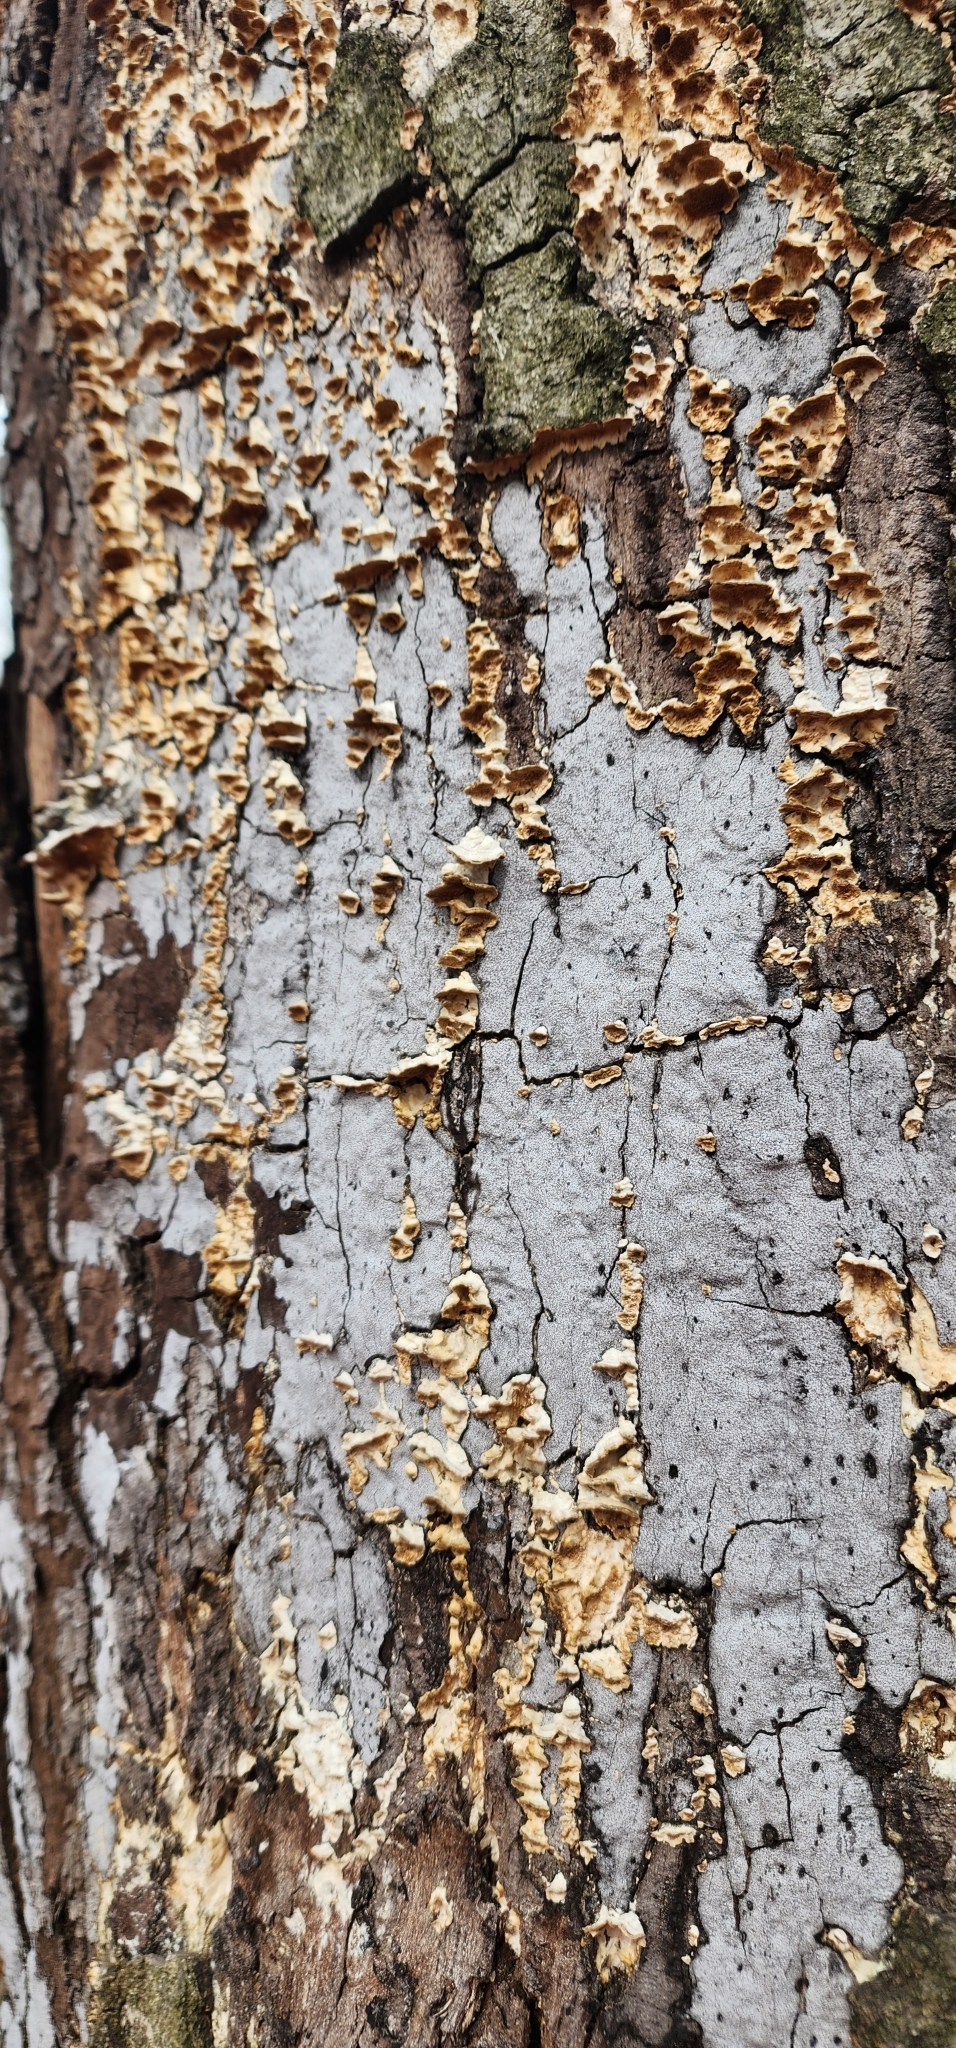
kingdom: Fungi
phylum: Ascomycota
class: Sordariomycetes
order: Xylariales
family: Graphostromataceae
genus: Biscogniauxia
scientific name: Biscogniauxia atropunctata
